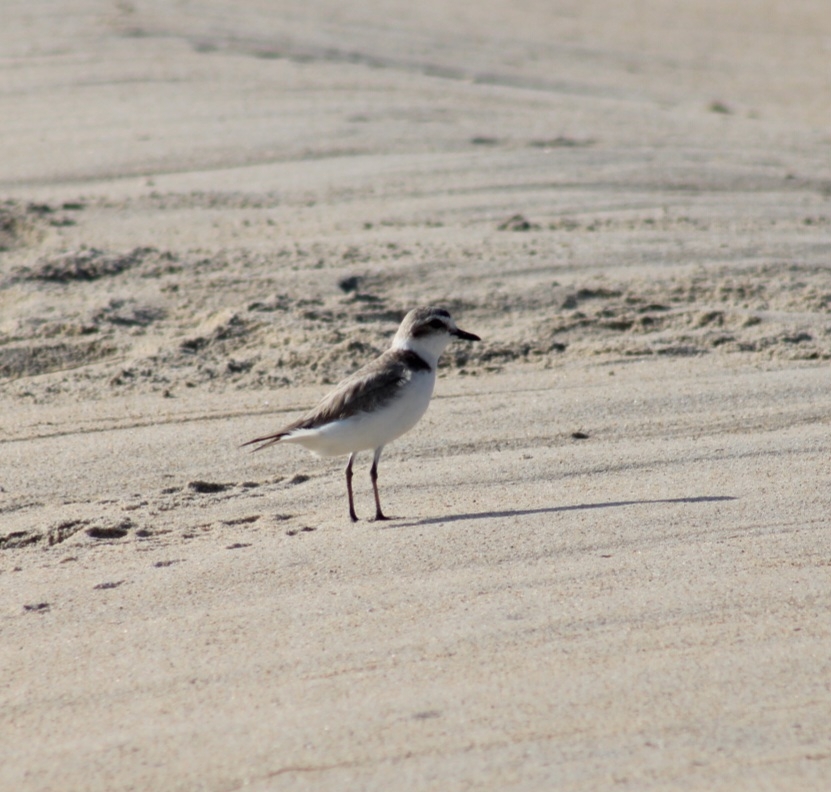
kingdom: Animalia
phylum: Chordata
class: Aves
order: Charadriiformes
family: Charadriidae
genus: Anarhynchus
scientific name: Anarhynchus
